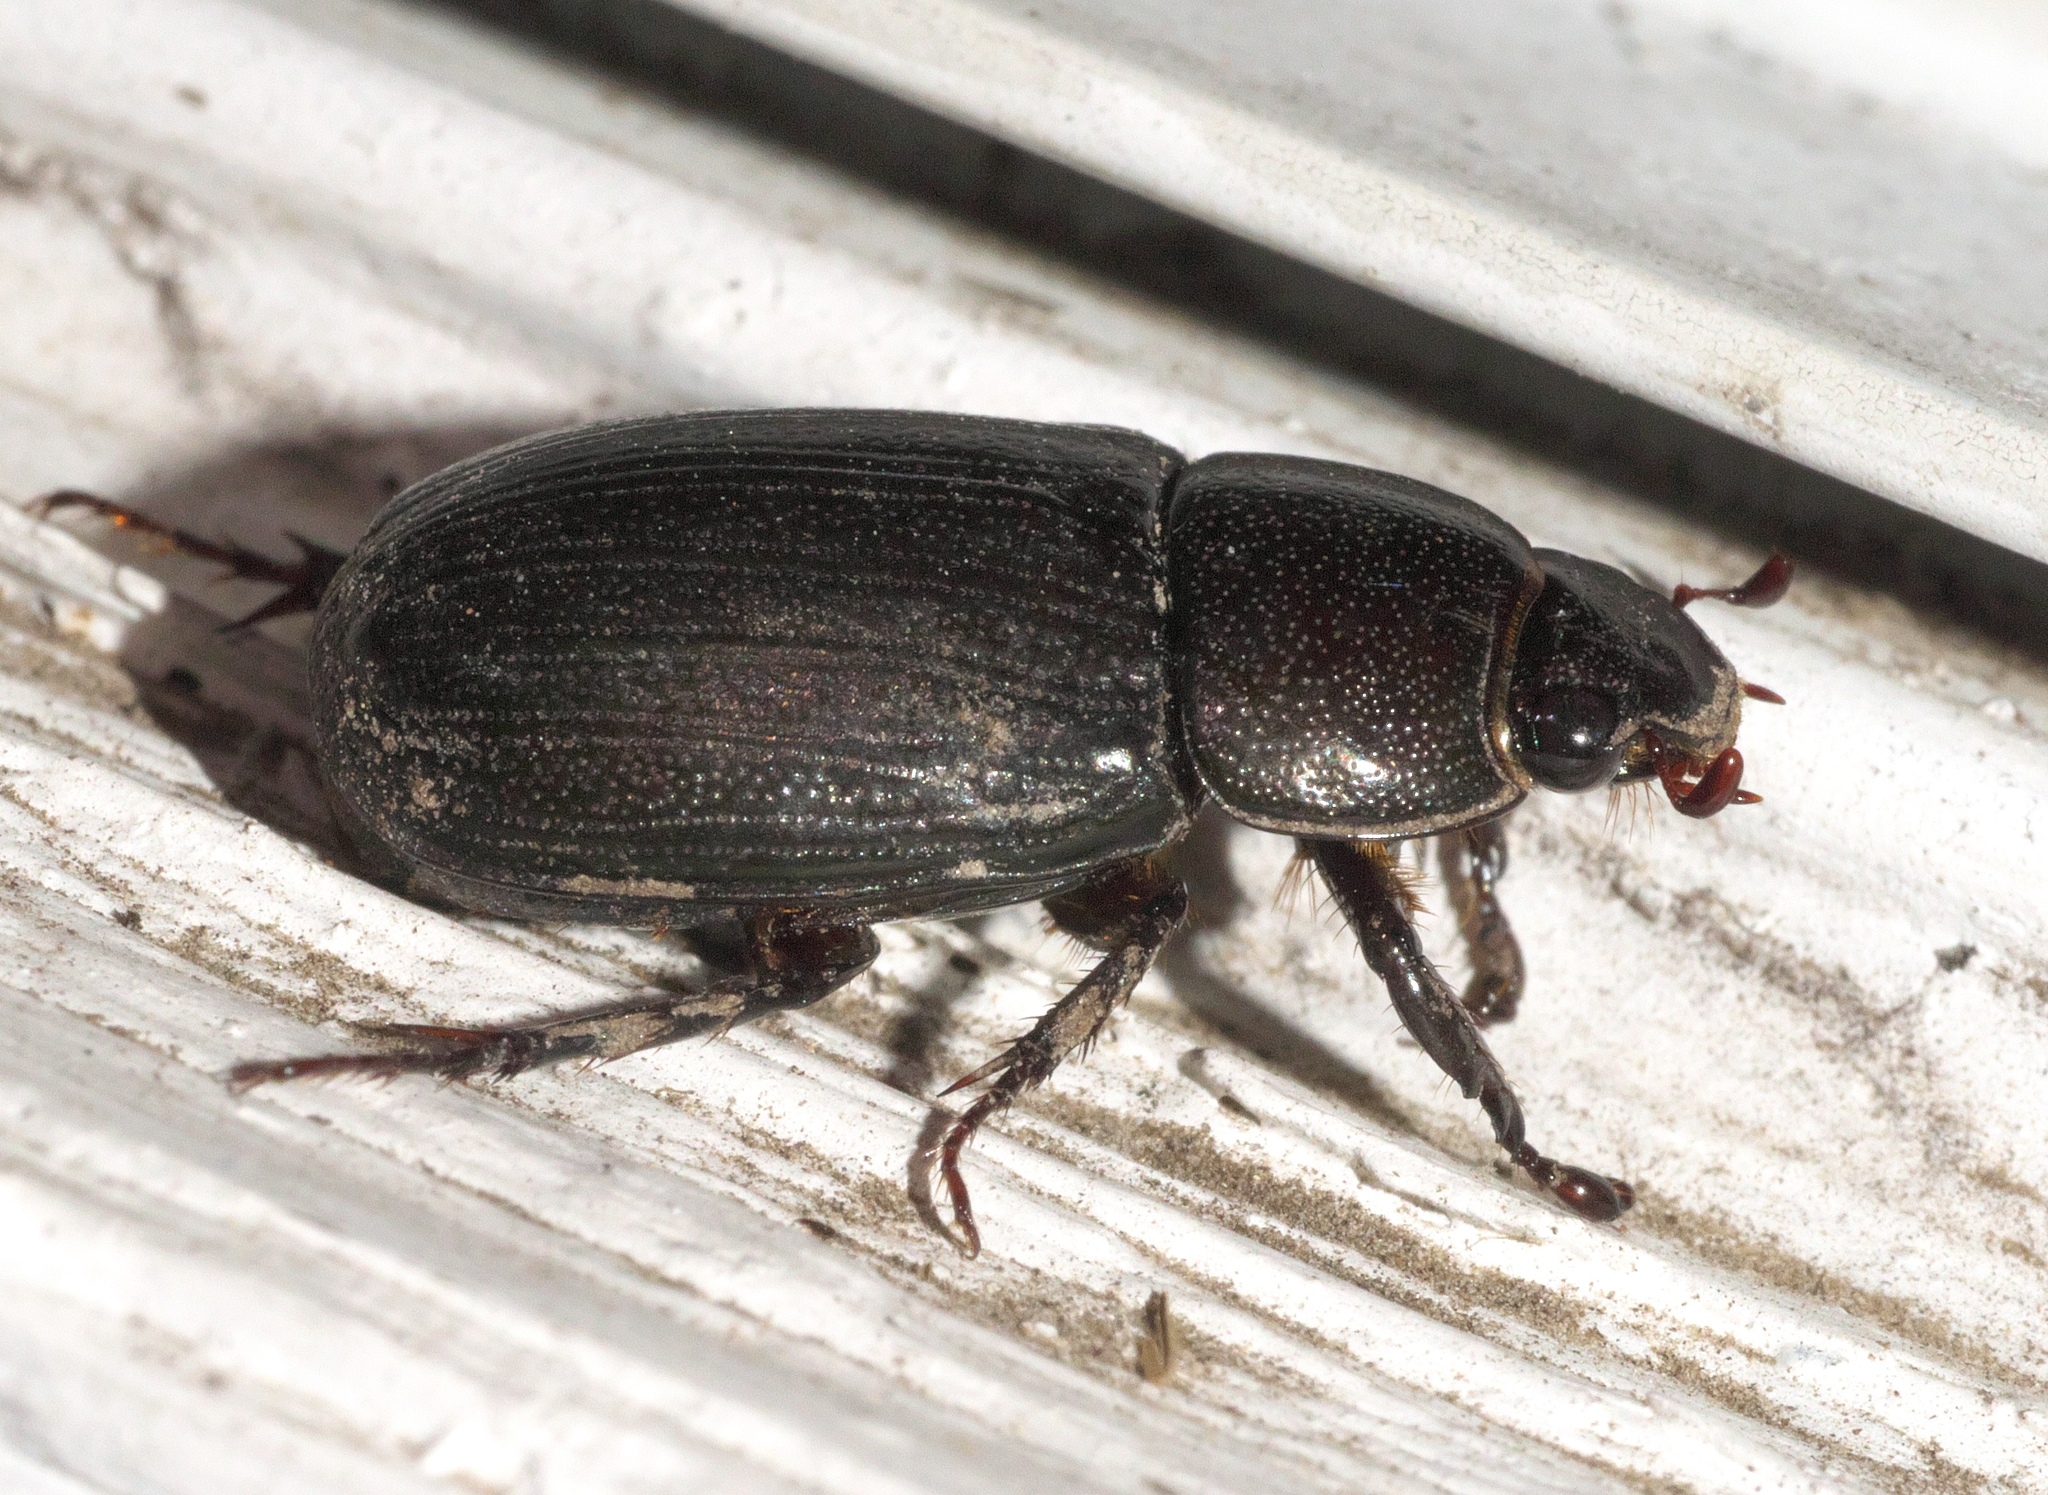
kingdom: Animalia
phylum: Arthropoda
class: Insecta
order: Coleoptera
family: Scarabaeidae
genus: Dyscinetus
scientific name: Dyscinetus morator
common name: Rice beetle
